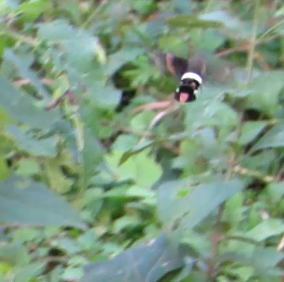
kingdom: Animalia
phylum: Arthropoda
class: Insecta
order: Lepidoptera
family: Sphingidae
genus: Aellopos
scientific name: Aellopos
